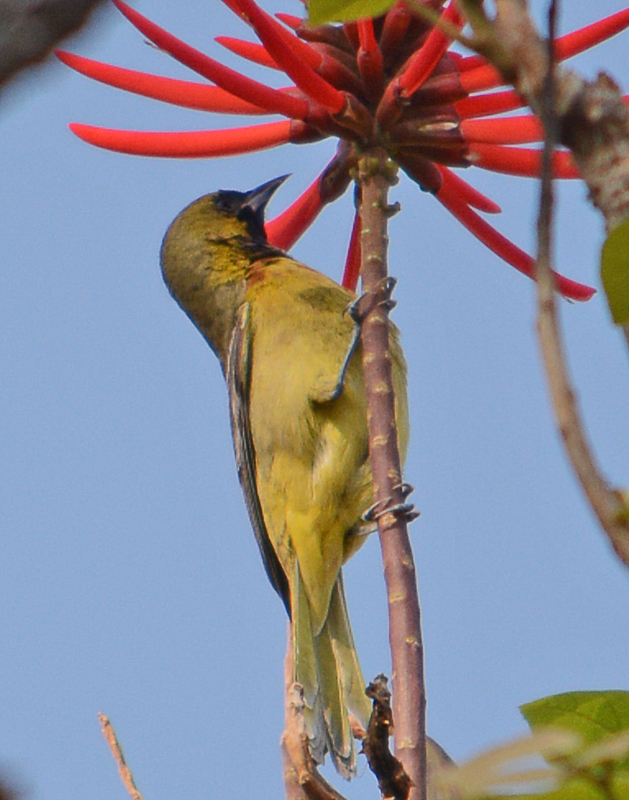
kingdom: Animalia
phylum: Chordata
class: Aves
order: Passeriformes
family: Icteridae
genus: Icterus
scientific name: Icterus spurius
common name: Orchard oriole
